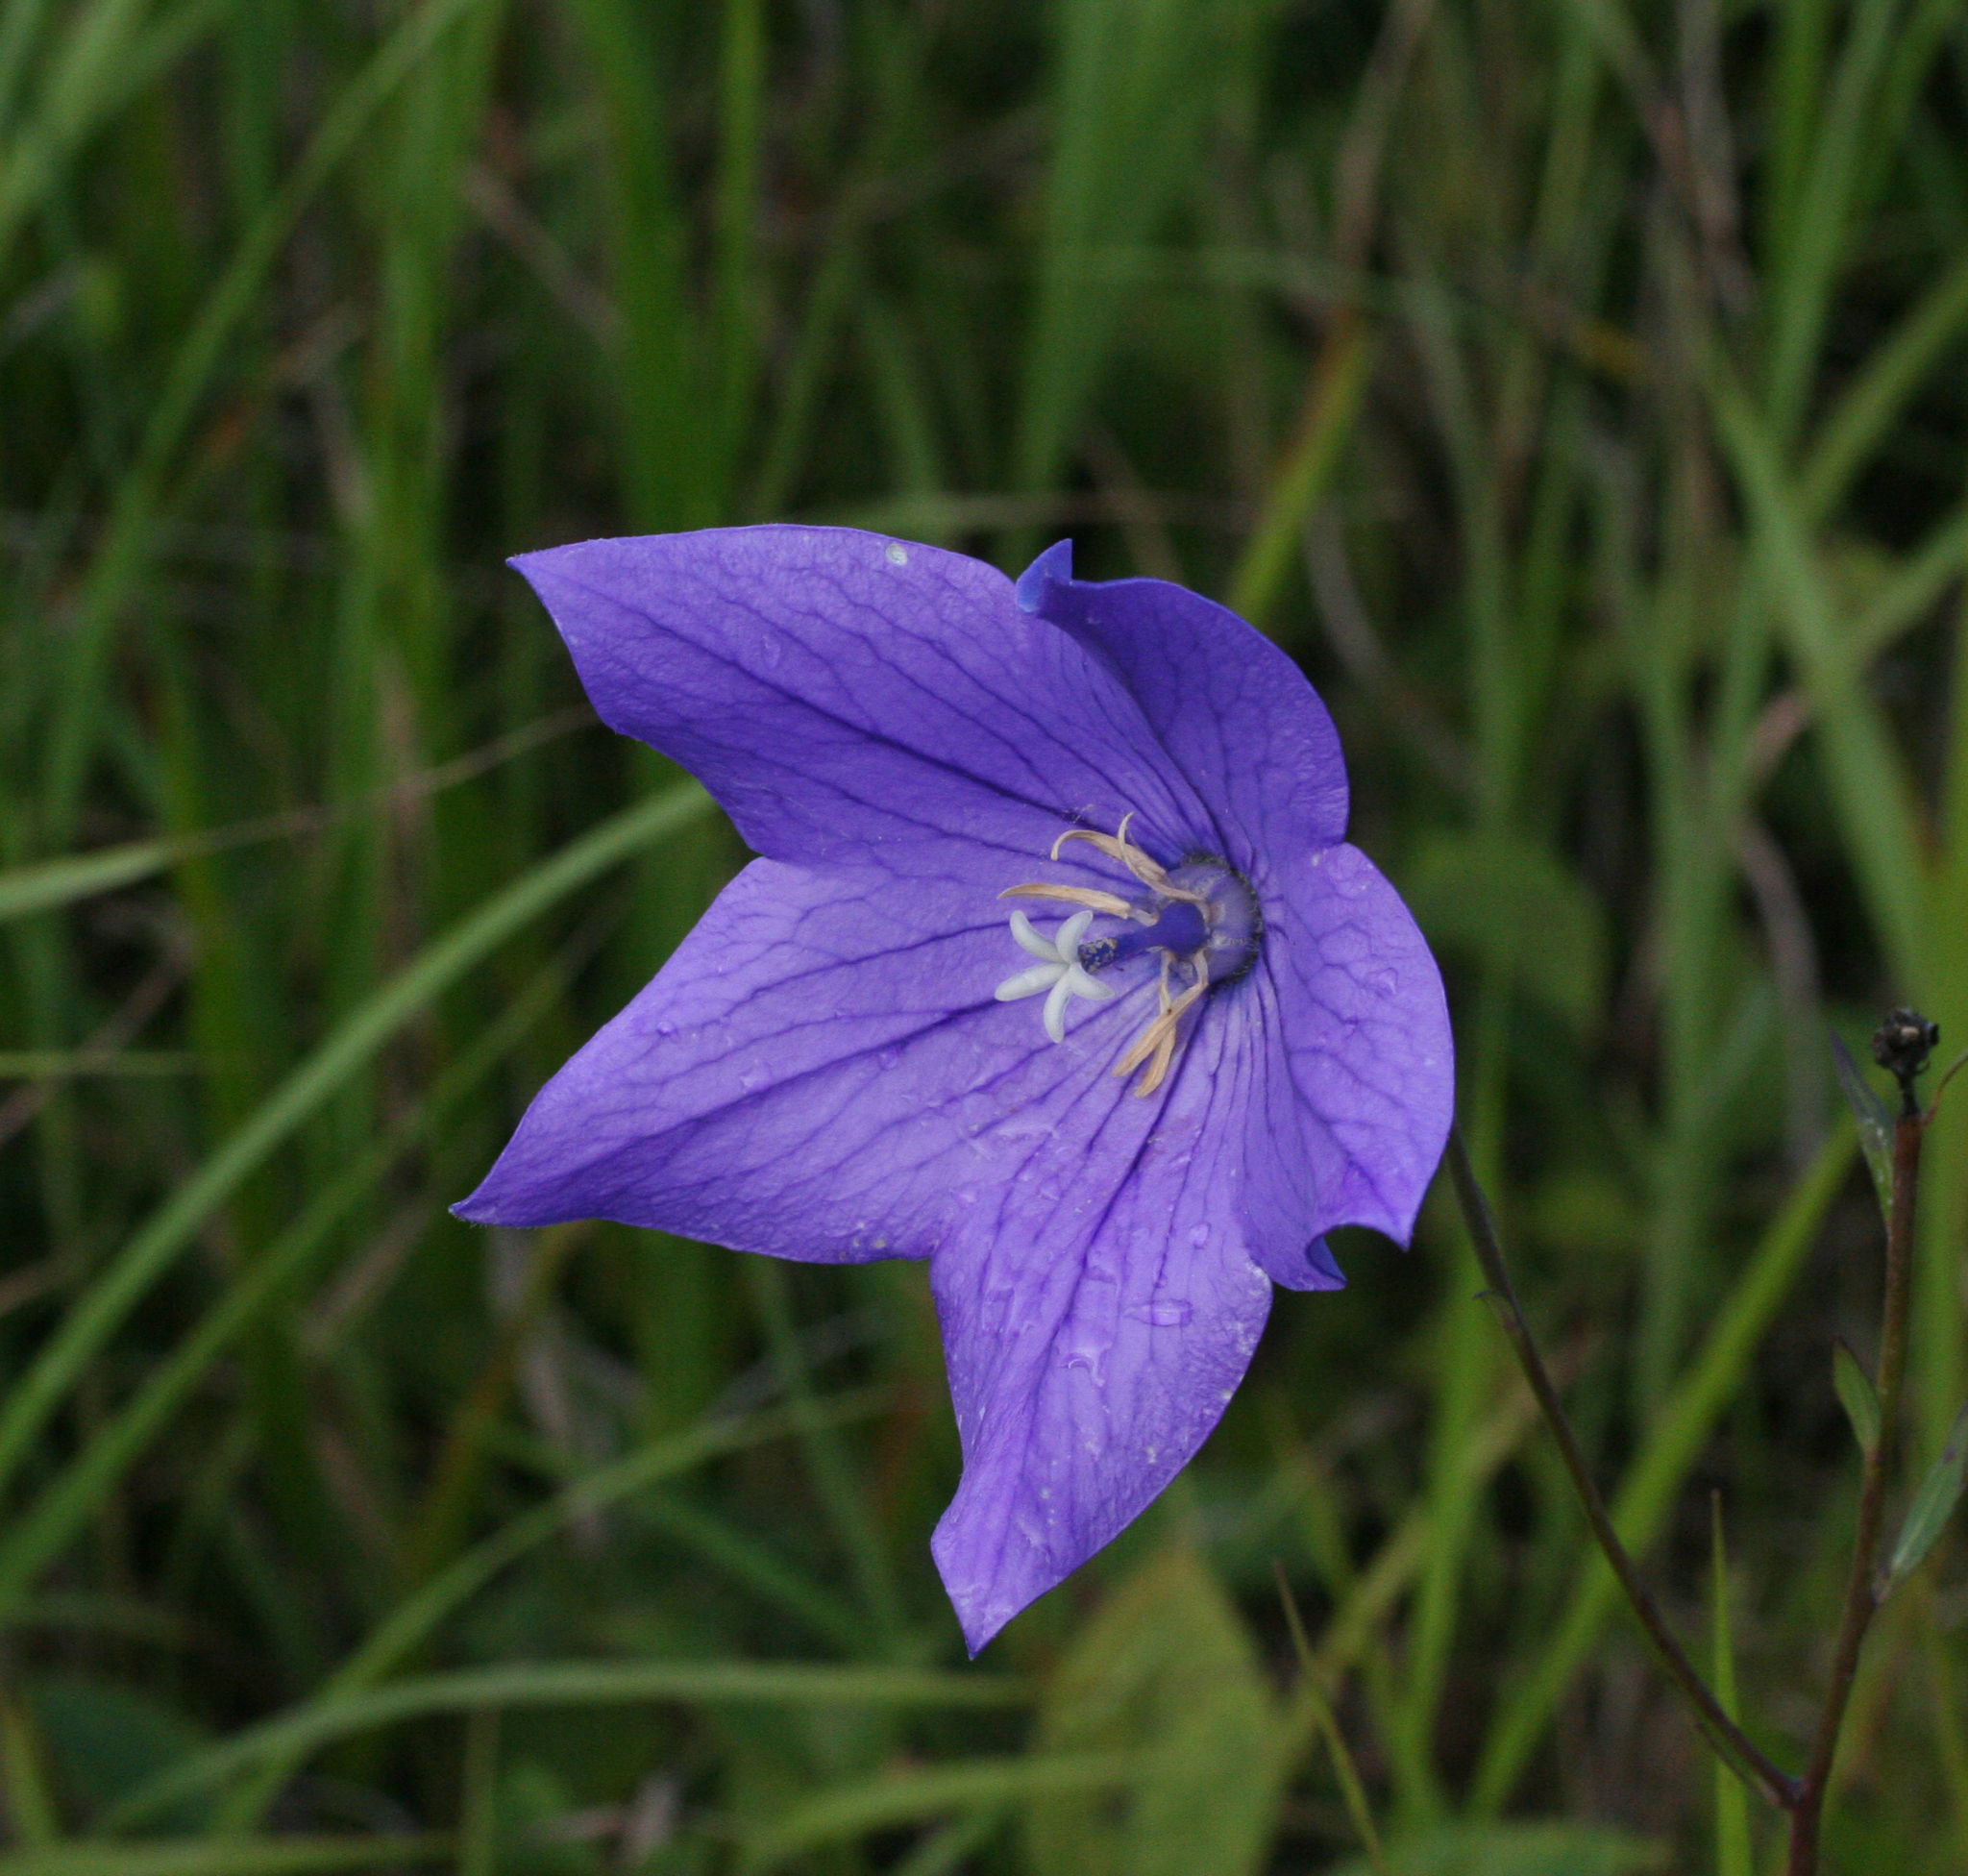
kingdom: Plantae
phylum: Tracheophyta
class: Magnoliopsida
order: Asterales
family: Campanulaceae
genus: Platycodon
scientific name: Platycodon grandiflorus
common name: Balloon-flower
